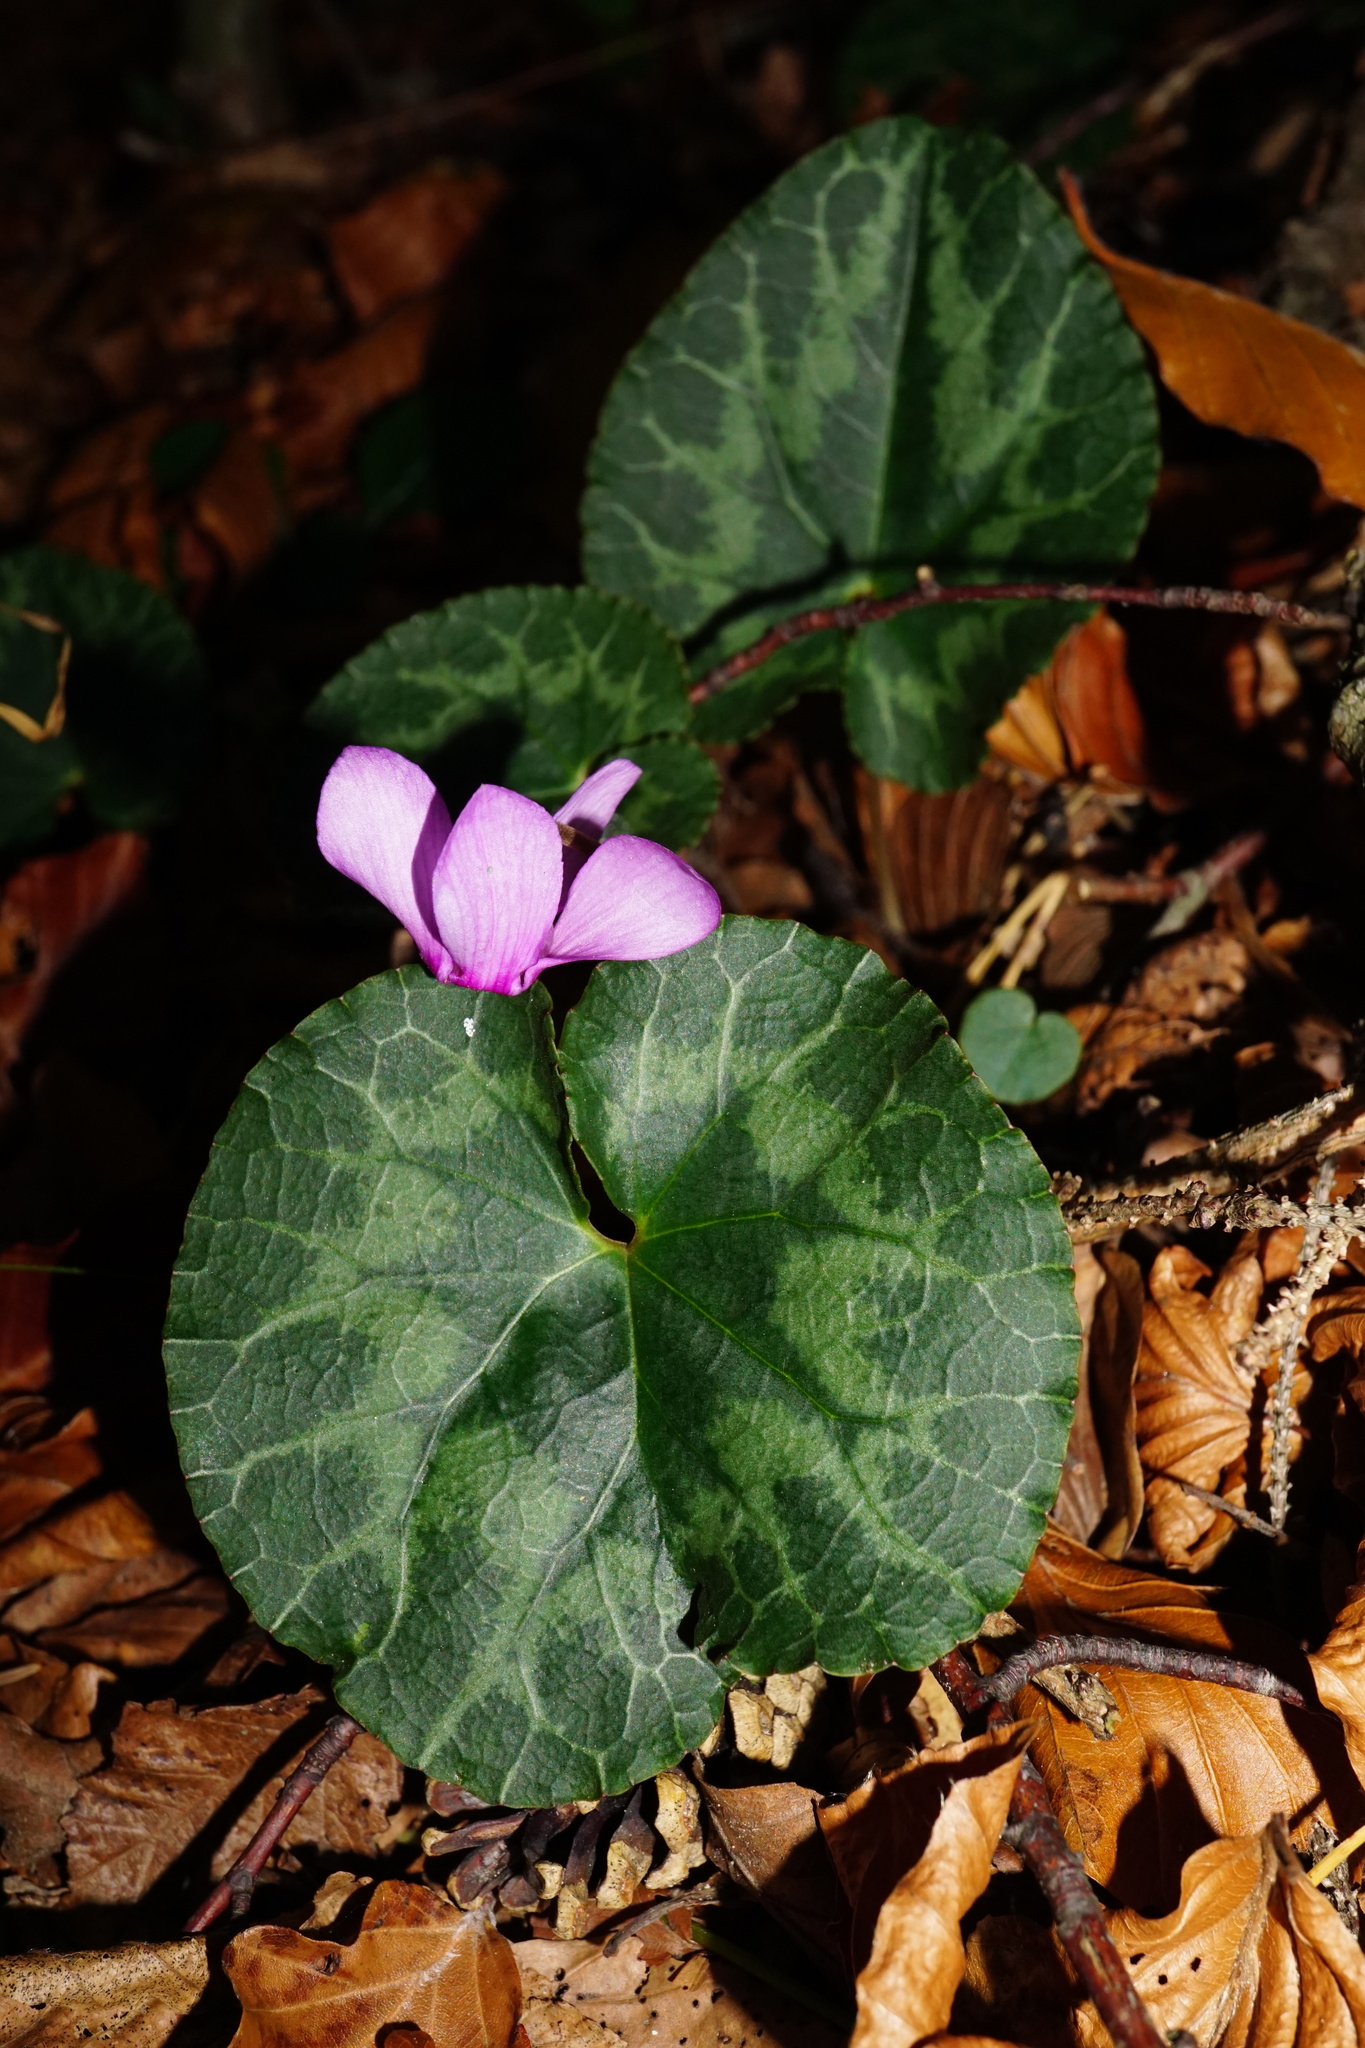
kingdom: Plantae
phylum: Tracheophyta
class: Magnoliopsida
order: Ericales
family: Primulaceae
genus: Cyclamen
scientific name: Cyclamen purpurascens
